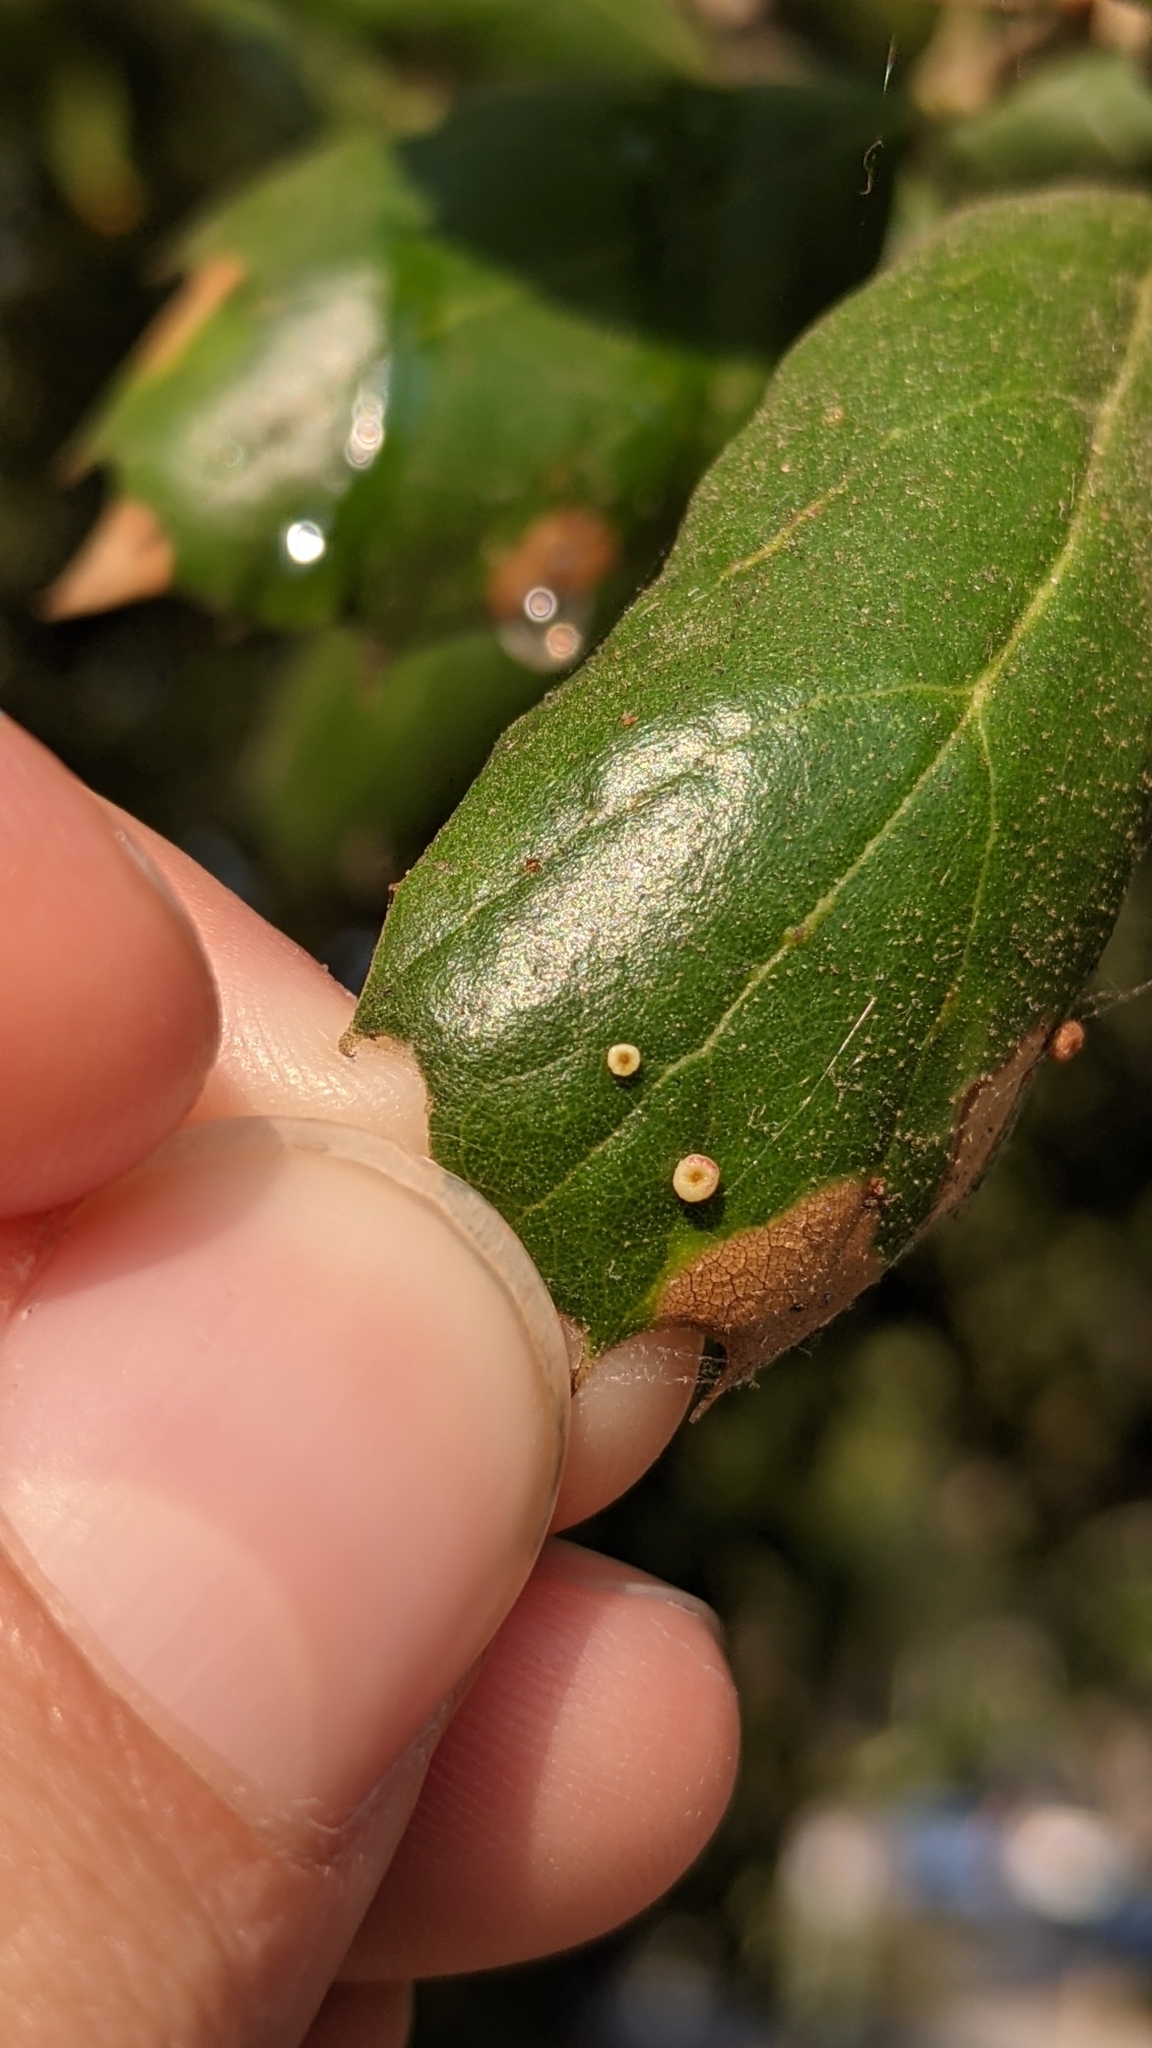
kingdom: Animalia
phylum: Arthropoda
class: Insecta
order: Hymenoptera
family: Cynipidae
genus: Dryocosmus
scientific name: Dryocosmus
